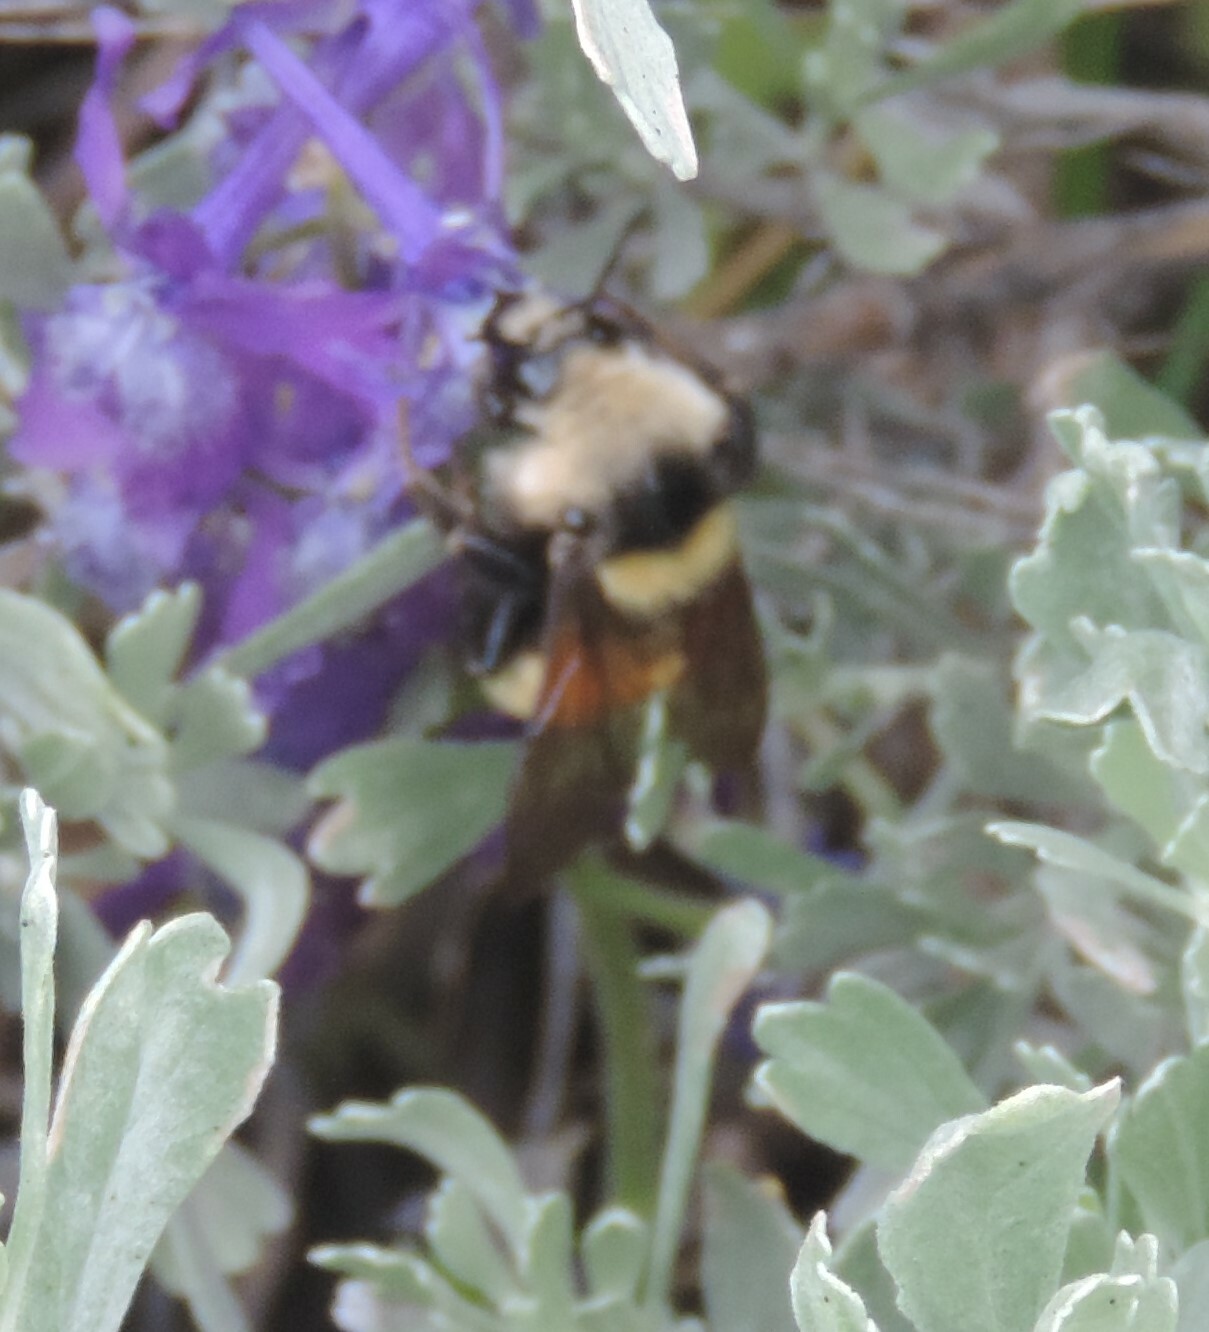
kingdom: Animalia
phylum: Arthropoda
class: Insecta
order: Hymenoptera
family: Apidae
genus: Bombus
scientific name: Bombus appositus
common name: White-shouldered bumble bee
